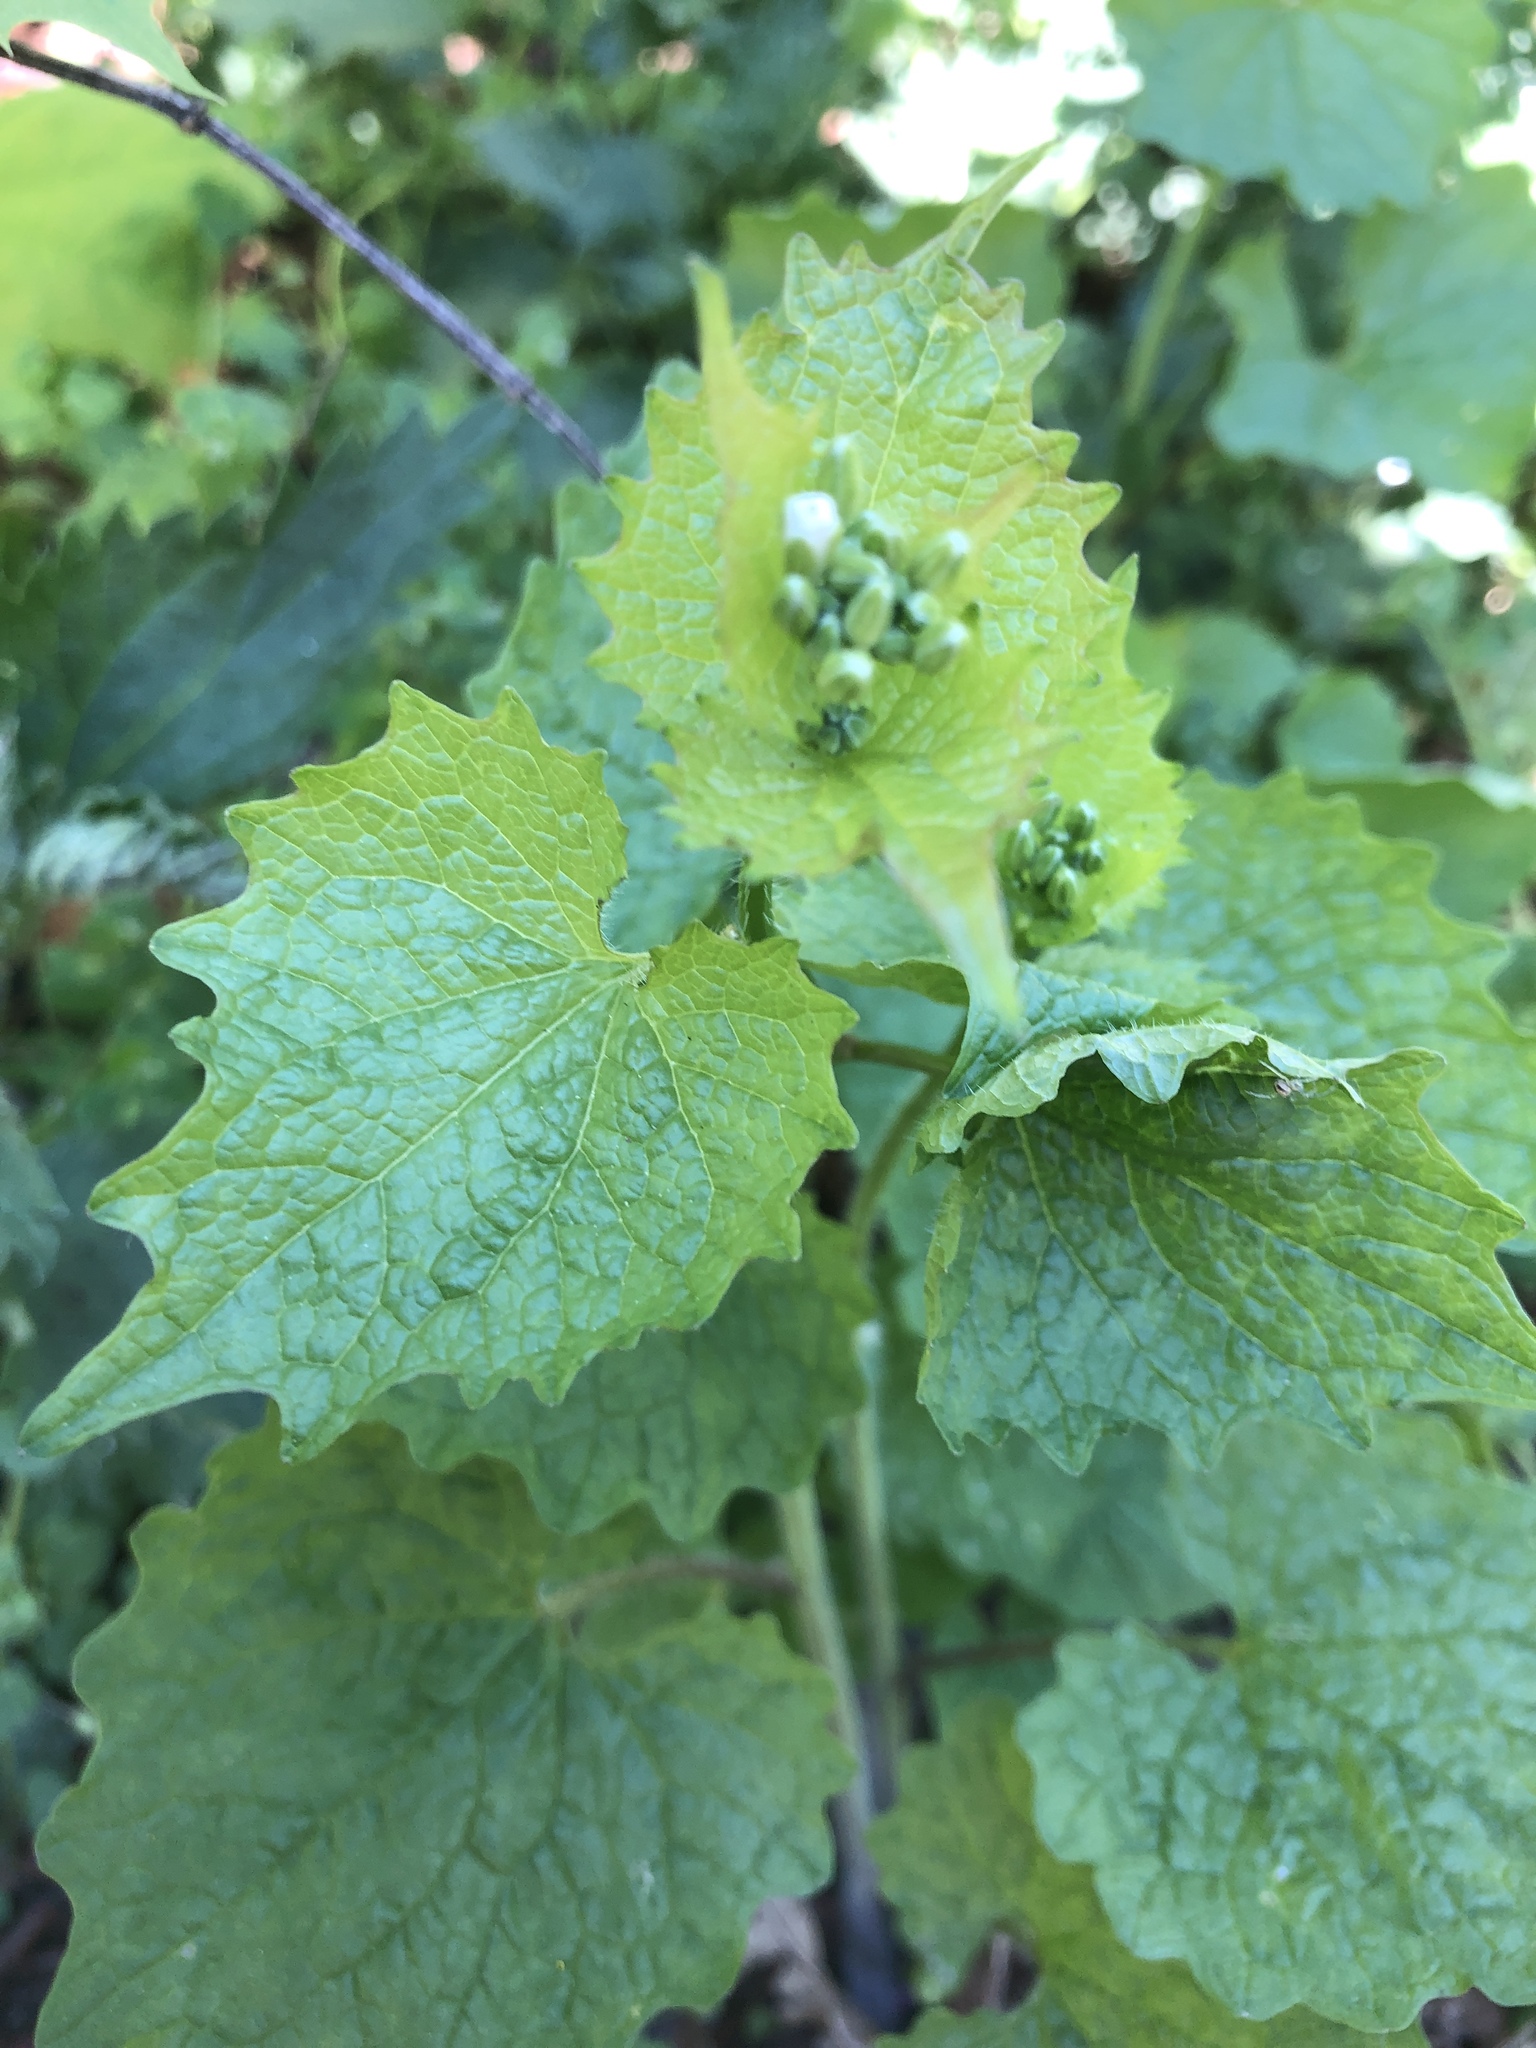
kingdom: Plantae
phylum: Tracheophyta
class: Magnoliopsida
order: Brassicales
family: Brassicaceae
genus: Alliaria
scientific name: Alliaria petiolata
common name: Garlic mustard
